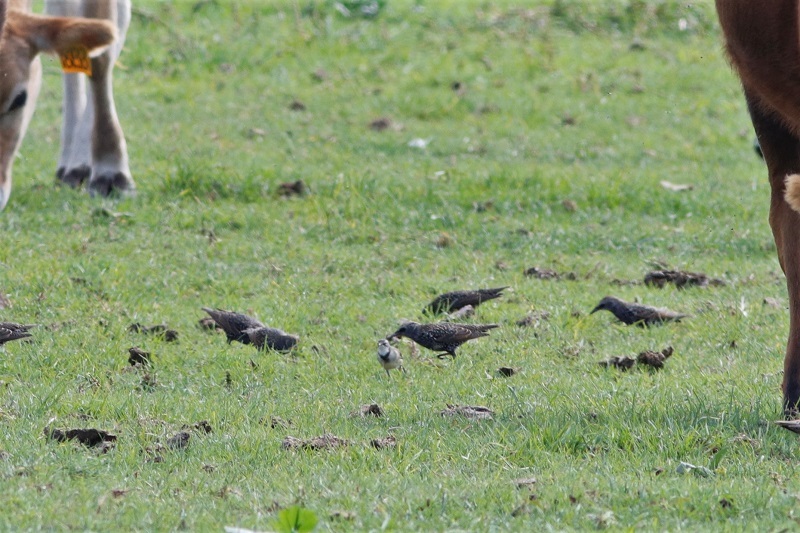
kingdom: Animalia
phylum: Chordata
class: Aves
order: Passeriformes
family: Sturnidae
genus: Sturnus
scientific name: Sturnus vulgaris
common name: Common starling
